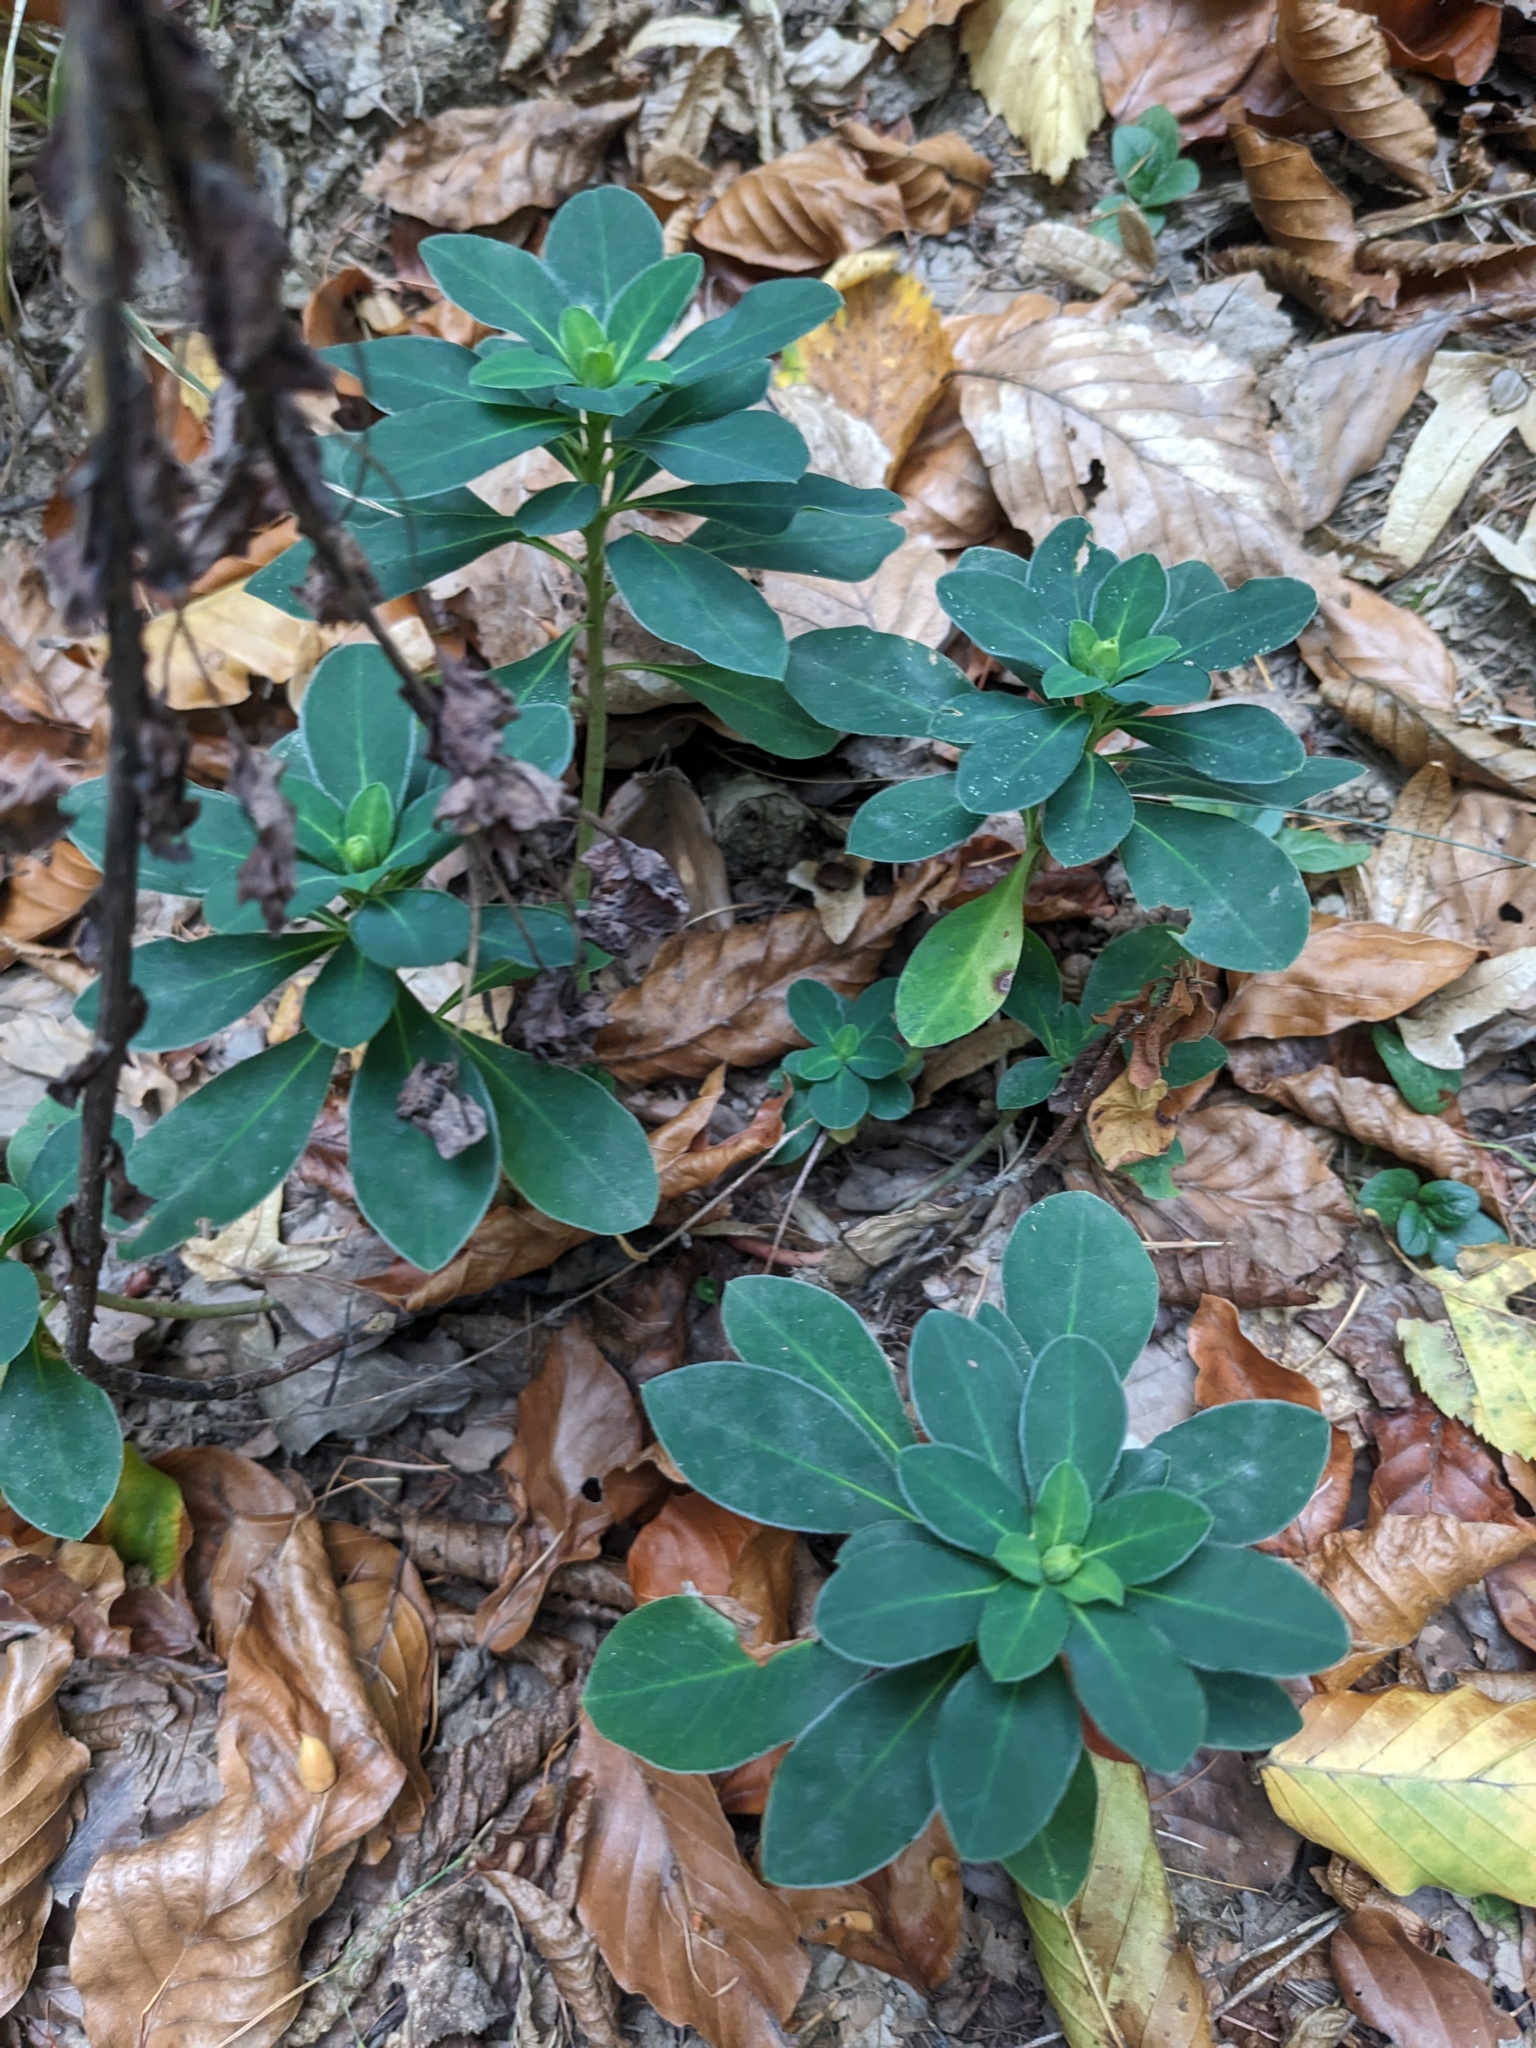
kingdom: Plantae
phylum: Tracheophyta
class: Magnoliopsida
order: Malpighiales
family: Euphorbiaceae
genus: Euphorbia
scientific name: Euphorbia amygdaloides
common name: Wood spurge
